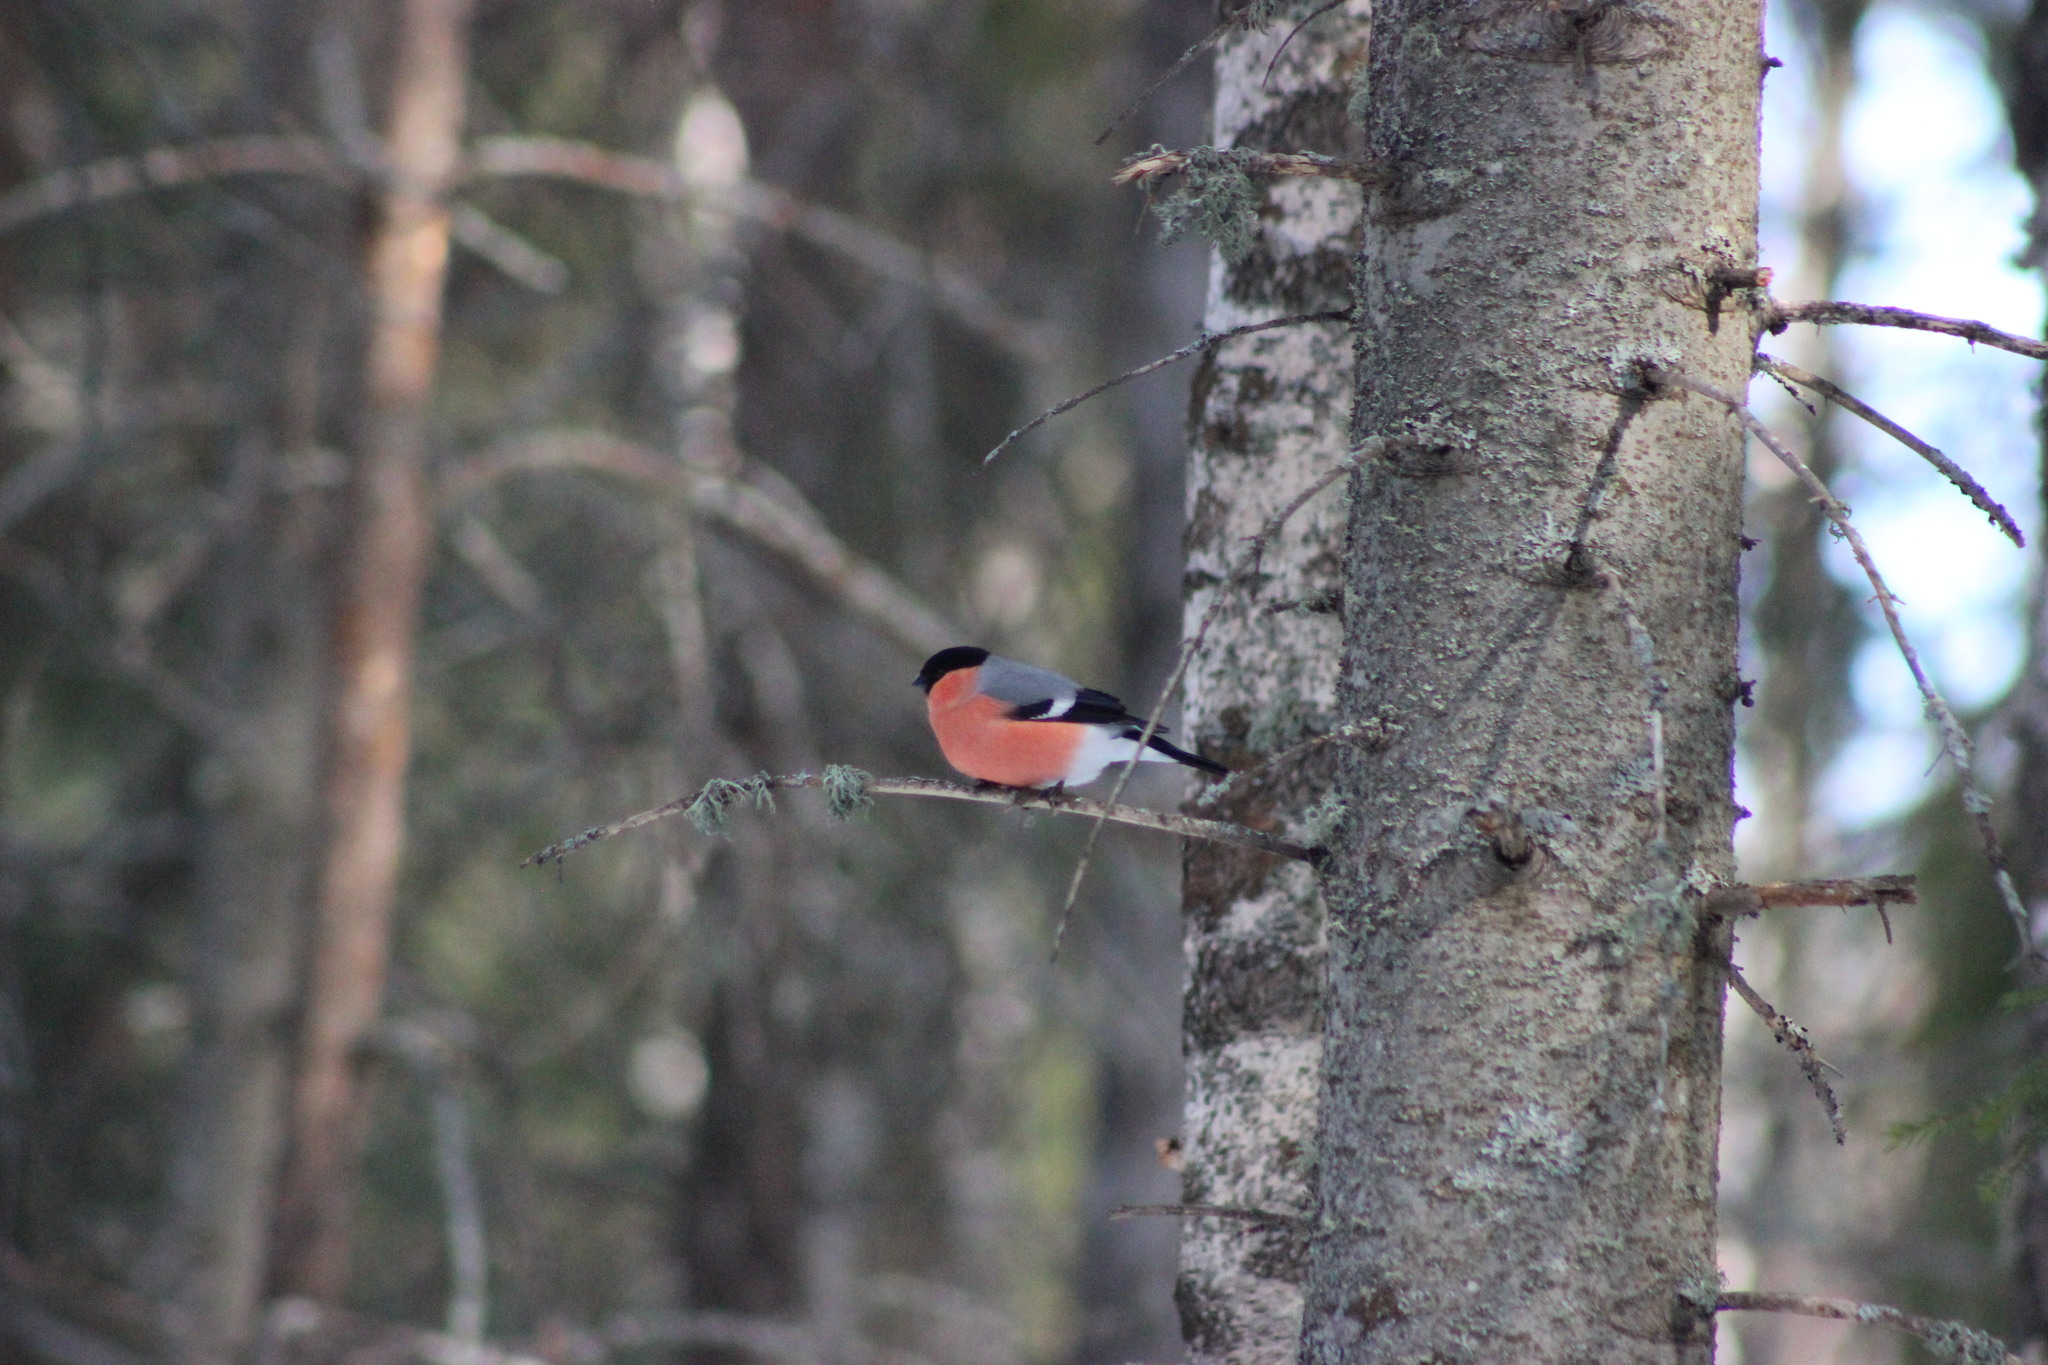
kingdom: Animalia
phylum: Chordata
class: Aves
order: Passeriformes
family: Fringillidae
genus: Pyrrhula
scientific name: Pyrrhula pyrrhula
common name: Eurasian bullfinch
